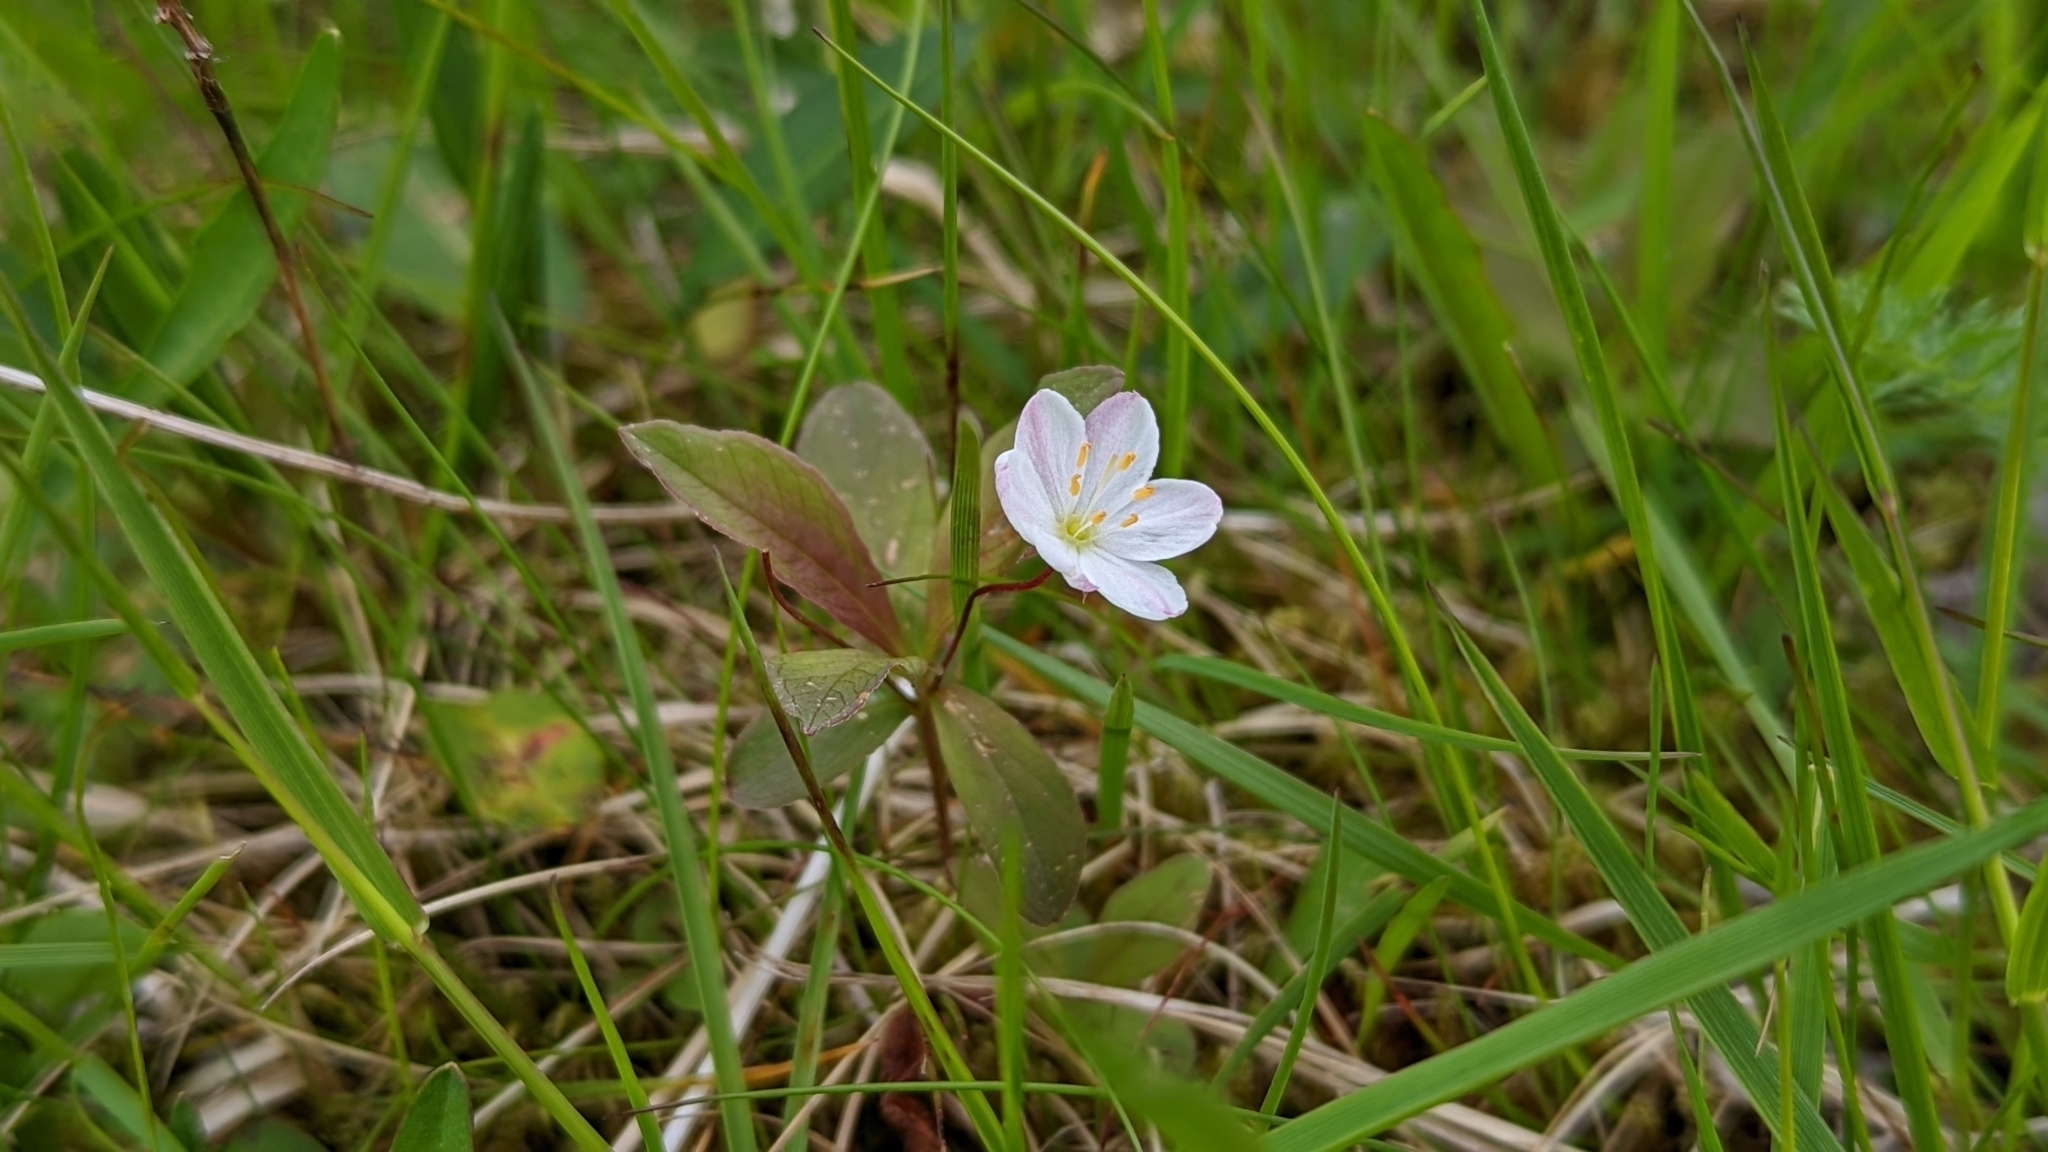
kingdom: Plantae
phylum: Tracheophyta
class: Magnoliopsida
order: Ericales
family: Primulaceae
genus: Lysimachia
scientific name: Lysimachia europaea
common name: Arctic starflower
